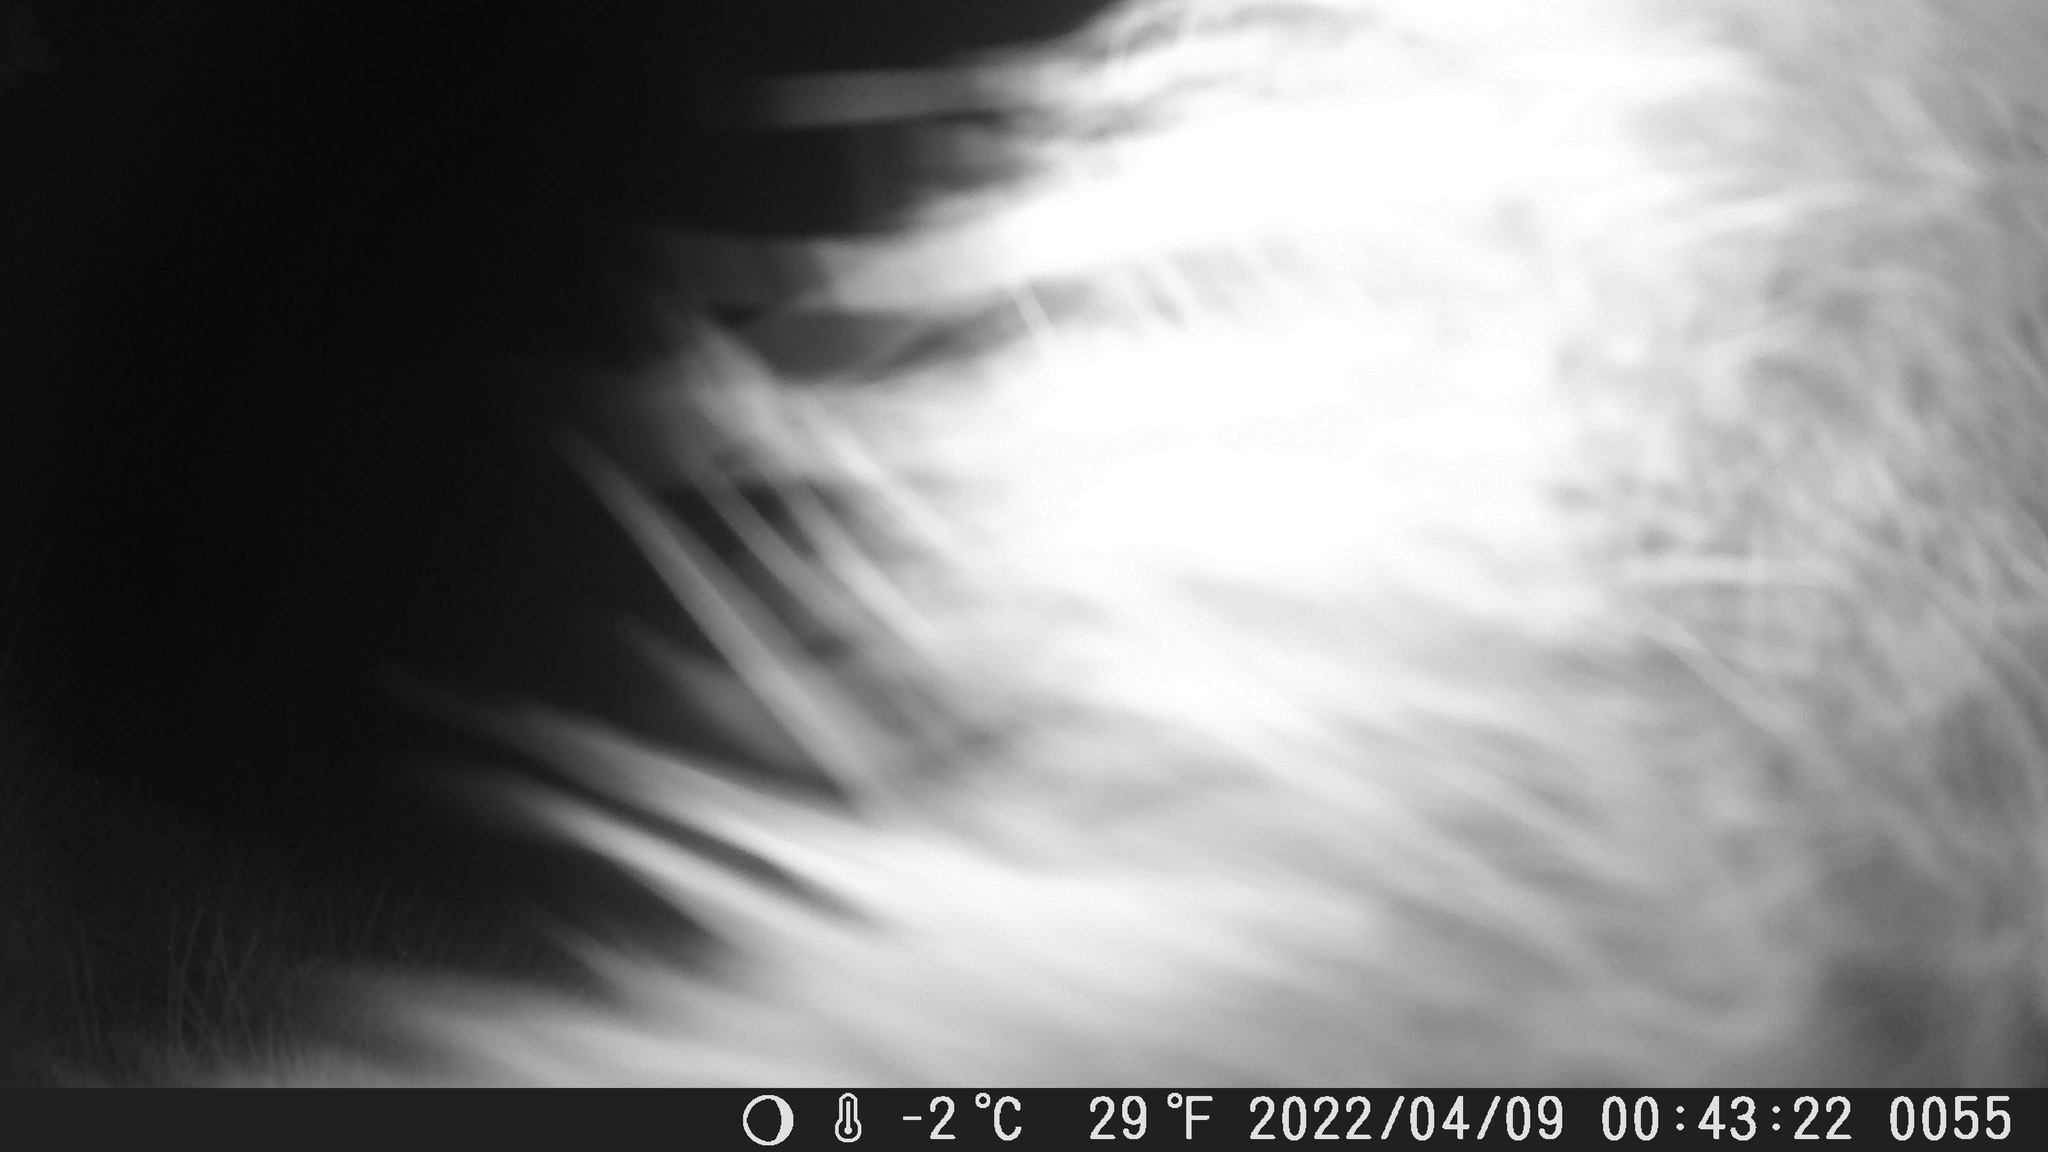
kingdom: Animalia
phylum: Chordata
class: Mammalia
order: Carnivora
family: Procyonidae
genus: Procyon
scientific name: Procyon lotor
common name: Raccoon
